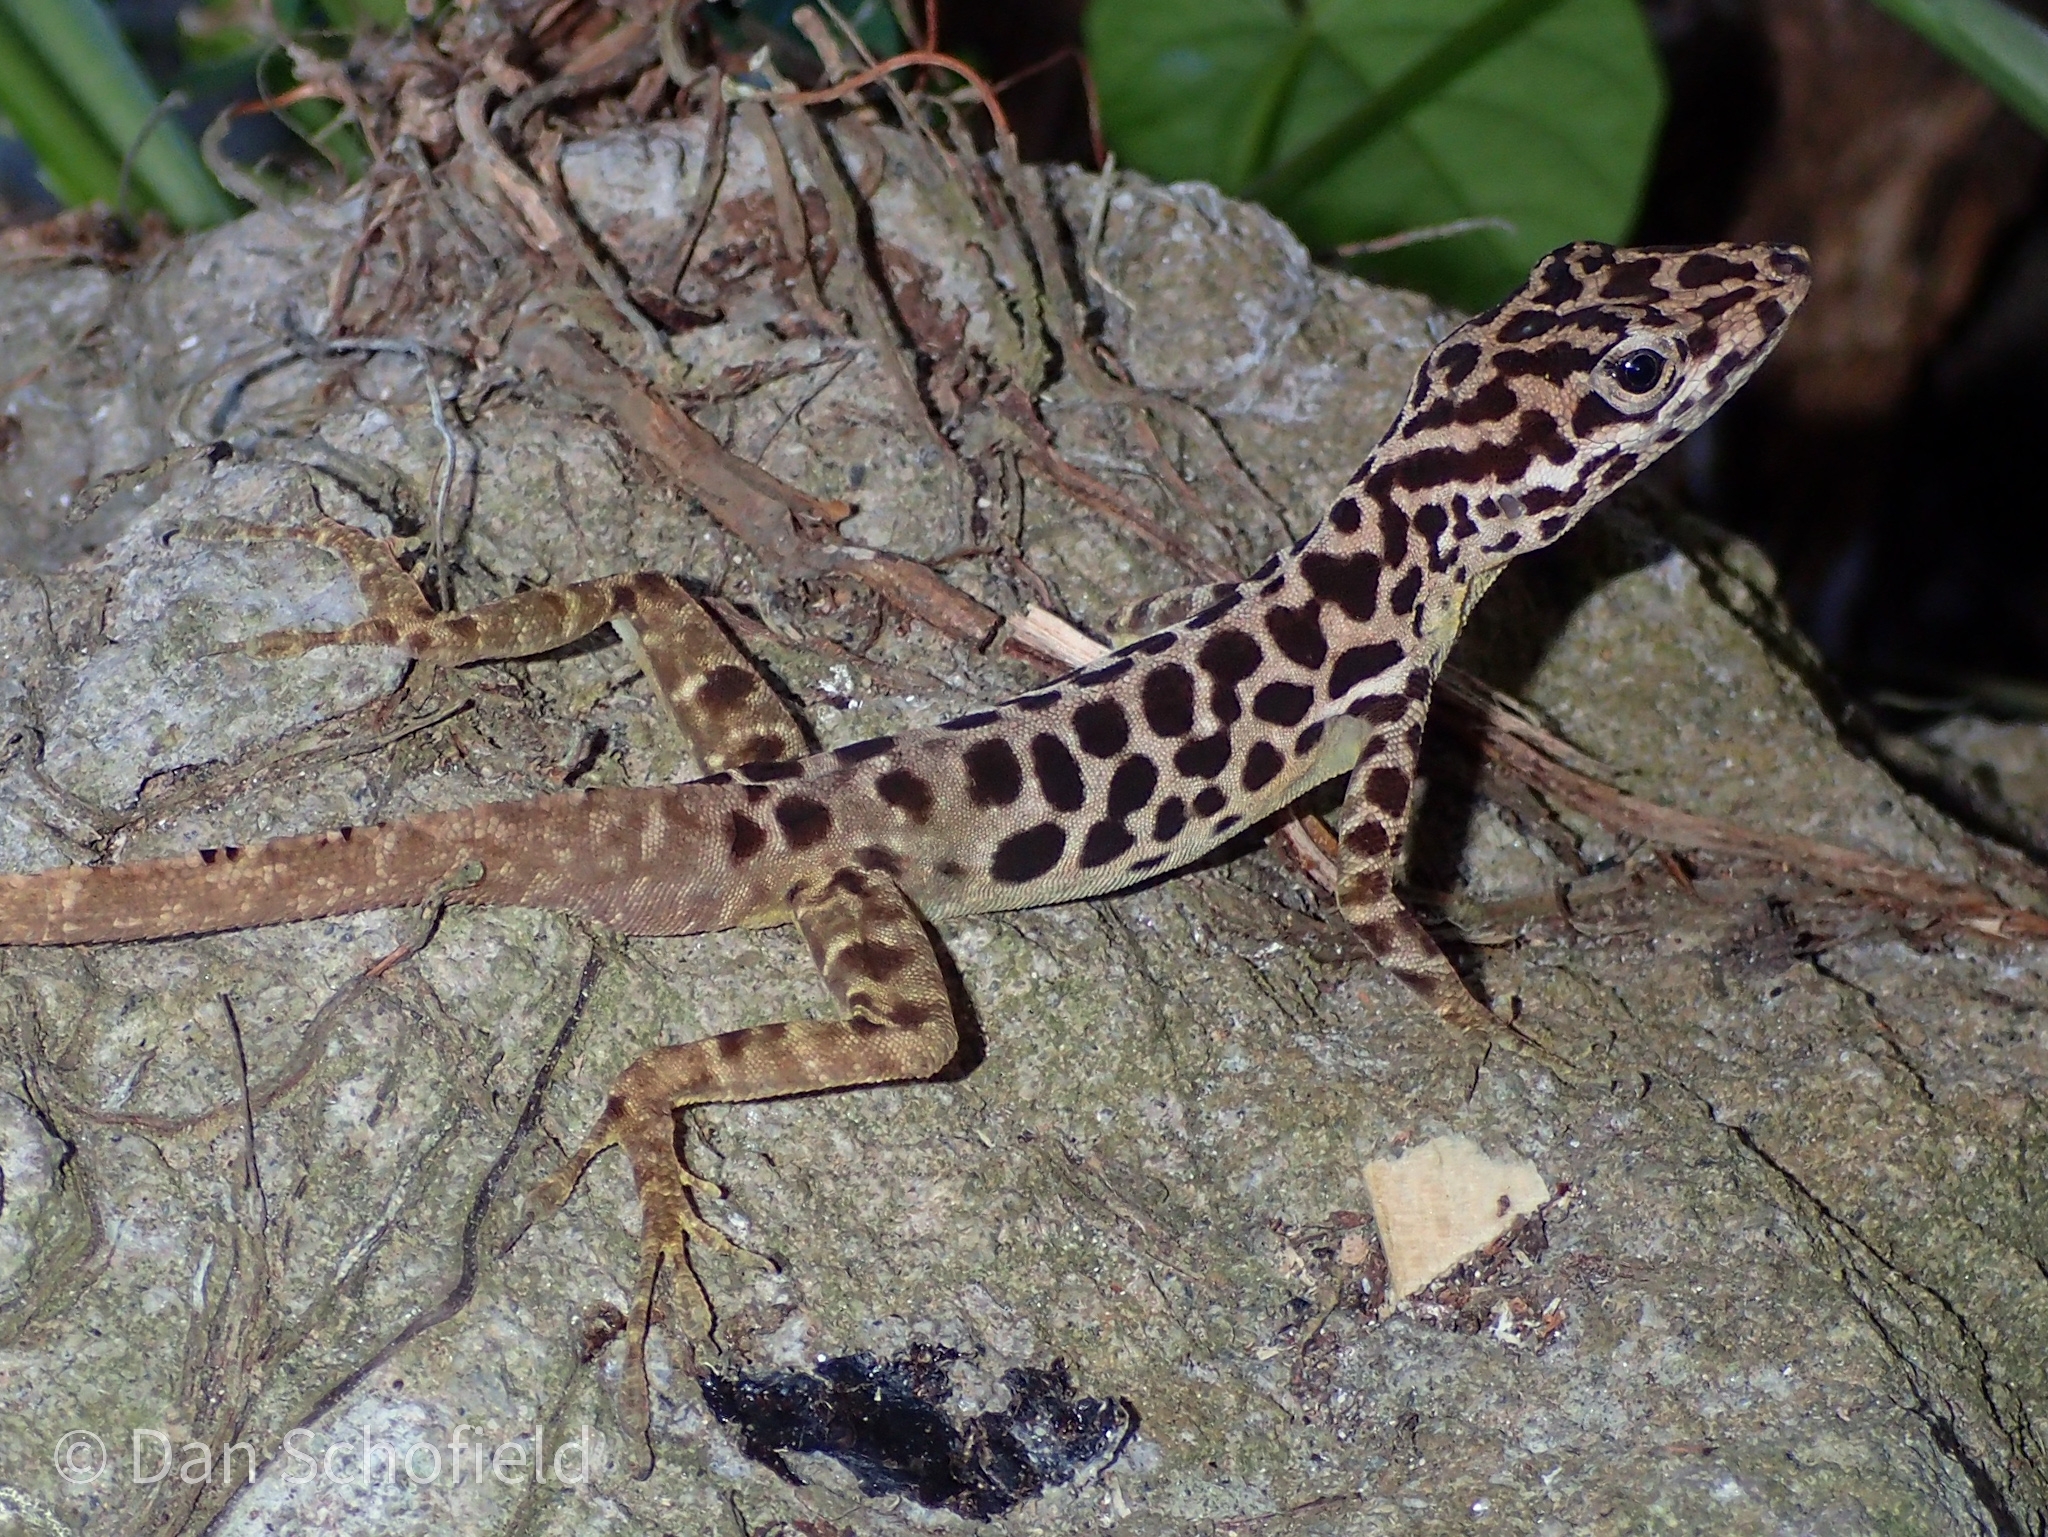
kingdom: Animalia
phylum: Chordata
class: Squamata
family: Dactyloidae
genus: Anolis
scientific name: Anolis sabanus
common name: Saba anole
